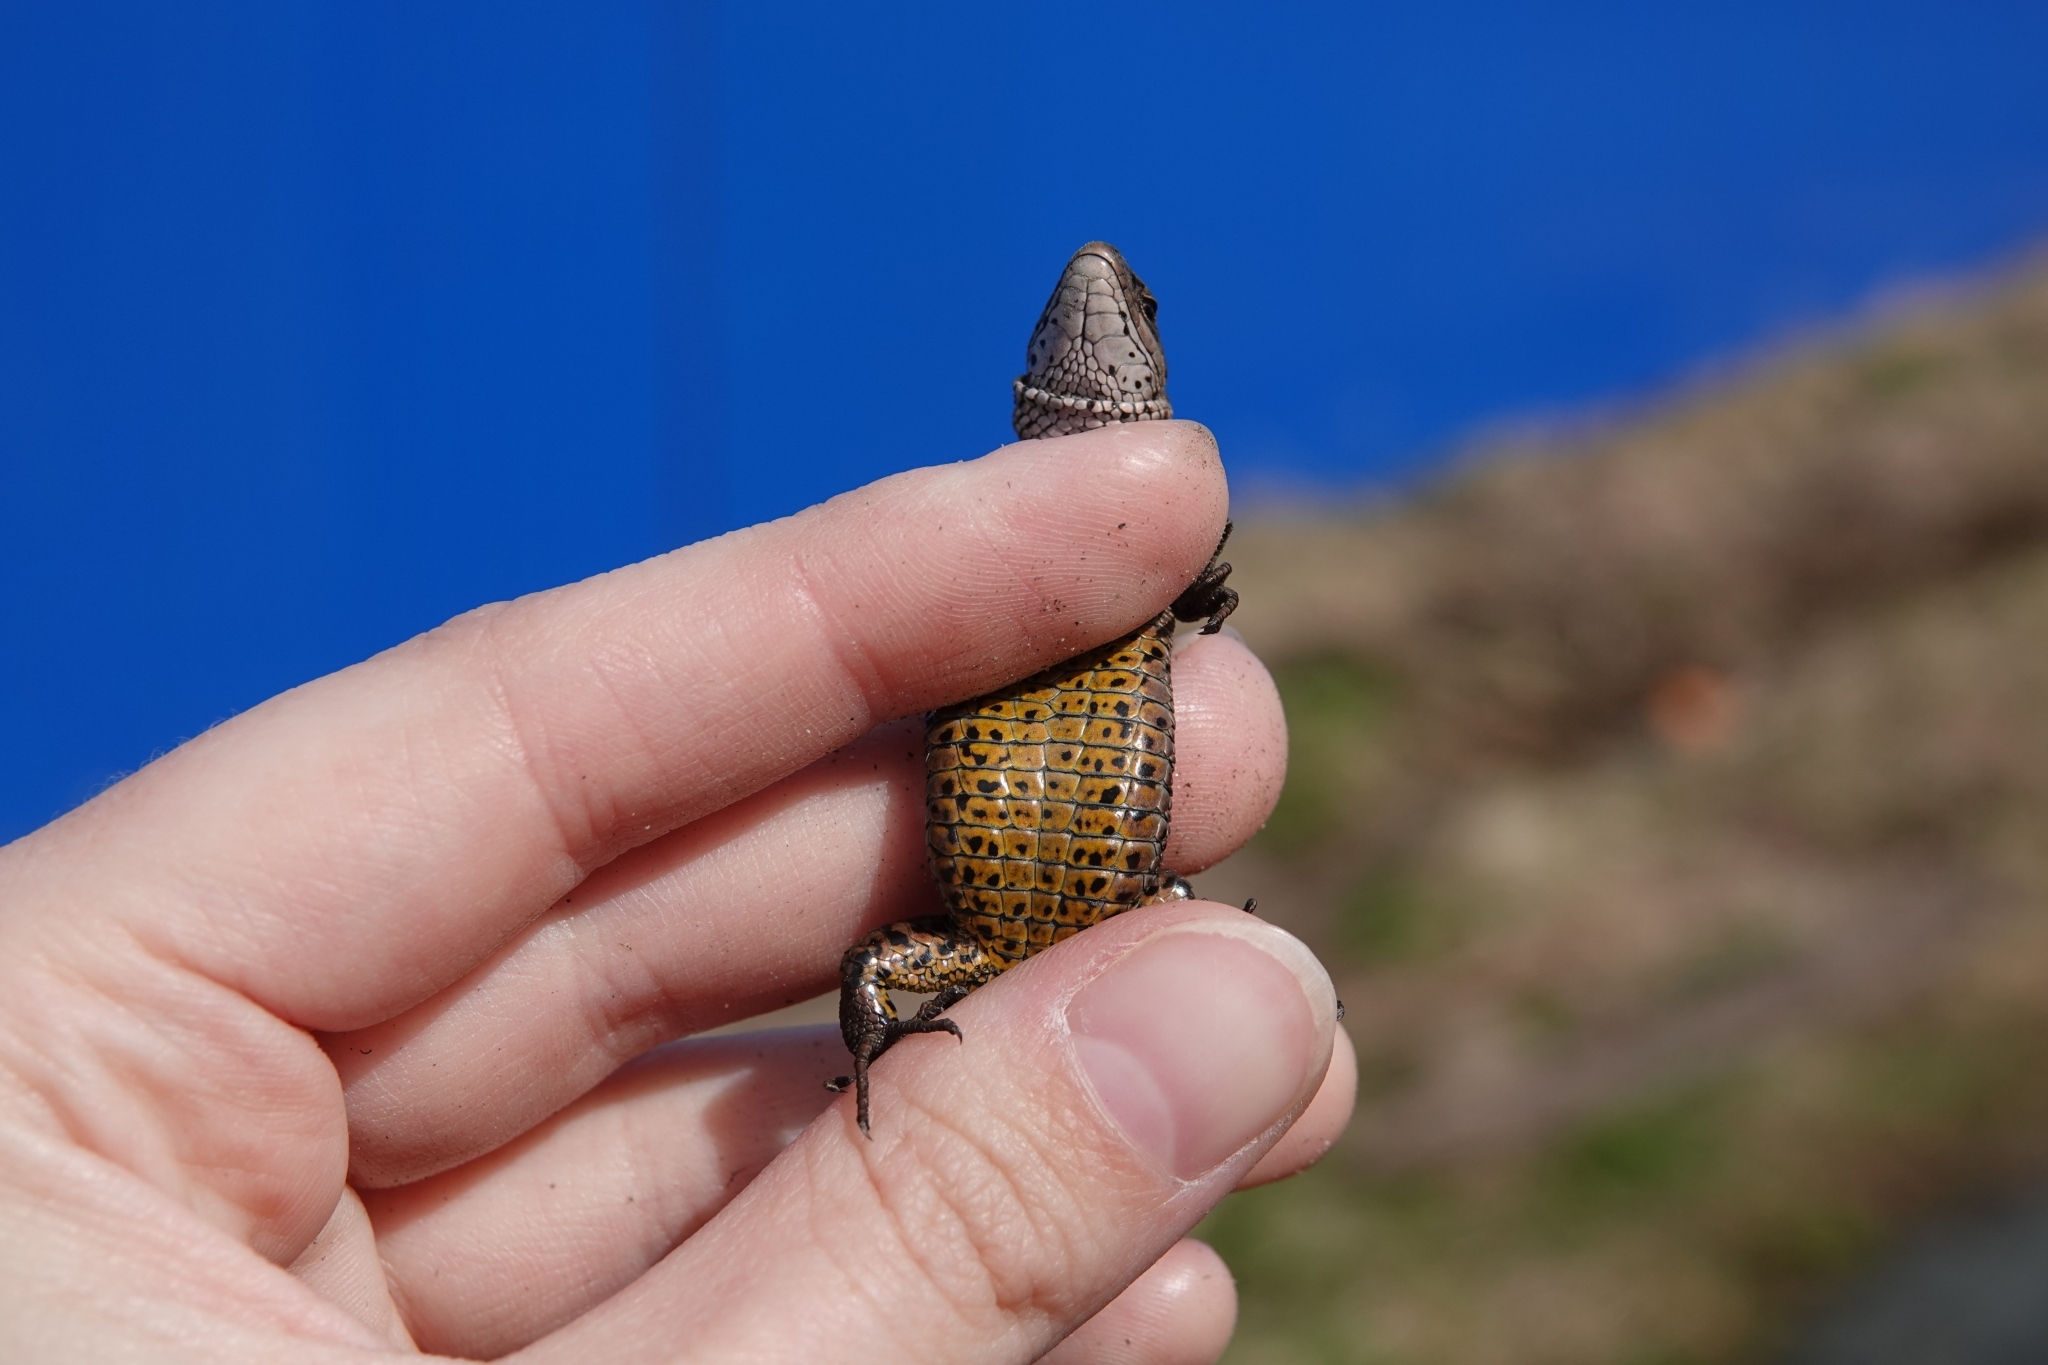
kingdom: Animalia
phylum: Chordata
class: Squamata
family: Lacertidae
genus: Zootoca
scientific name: Zootoca vivipara
